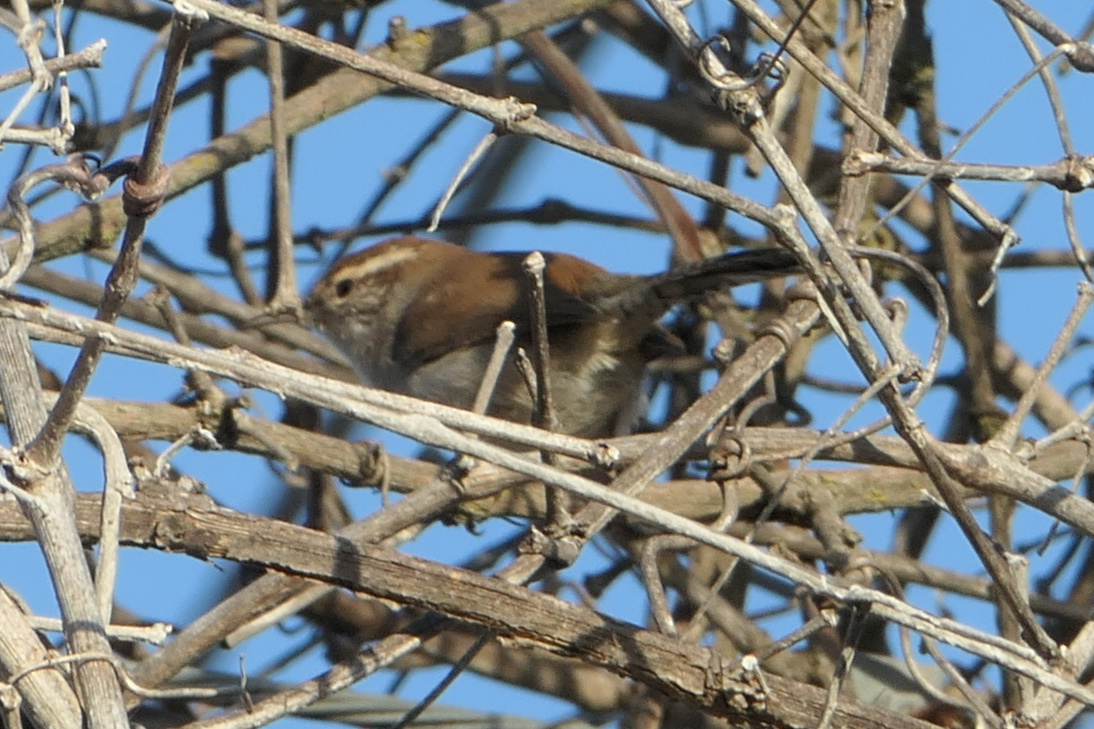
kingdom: Animalia
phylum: Chordata
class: Aves
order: Passeriformes
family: Troglodytidae
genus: Thryomanes
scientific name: Thryomanes bewickii
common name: Bewick's wren
